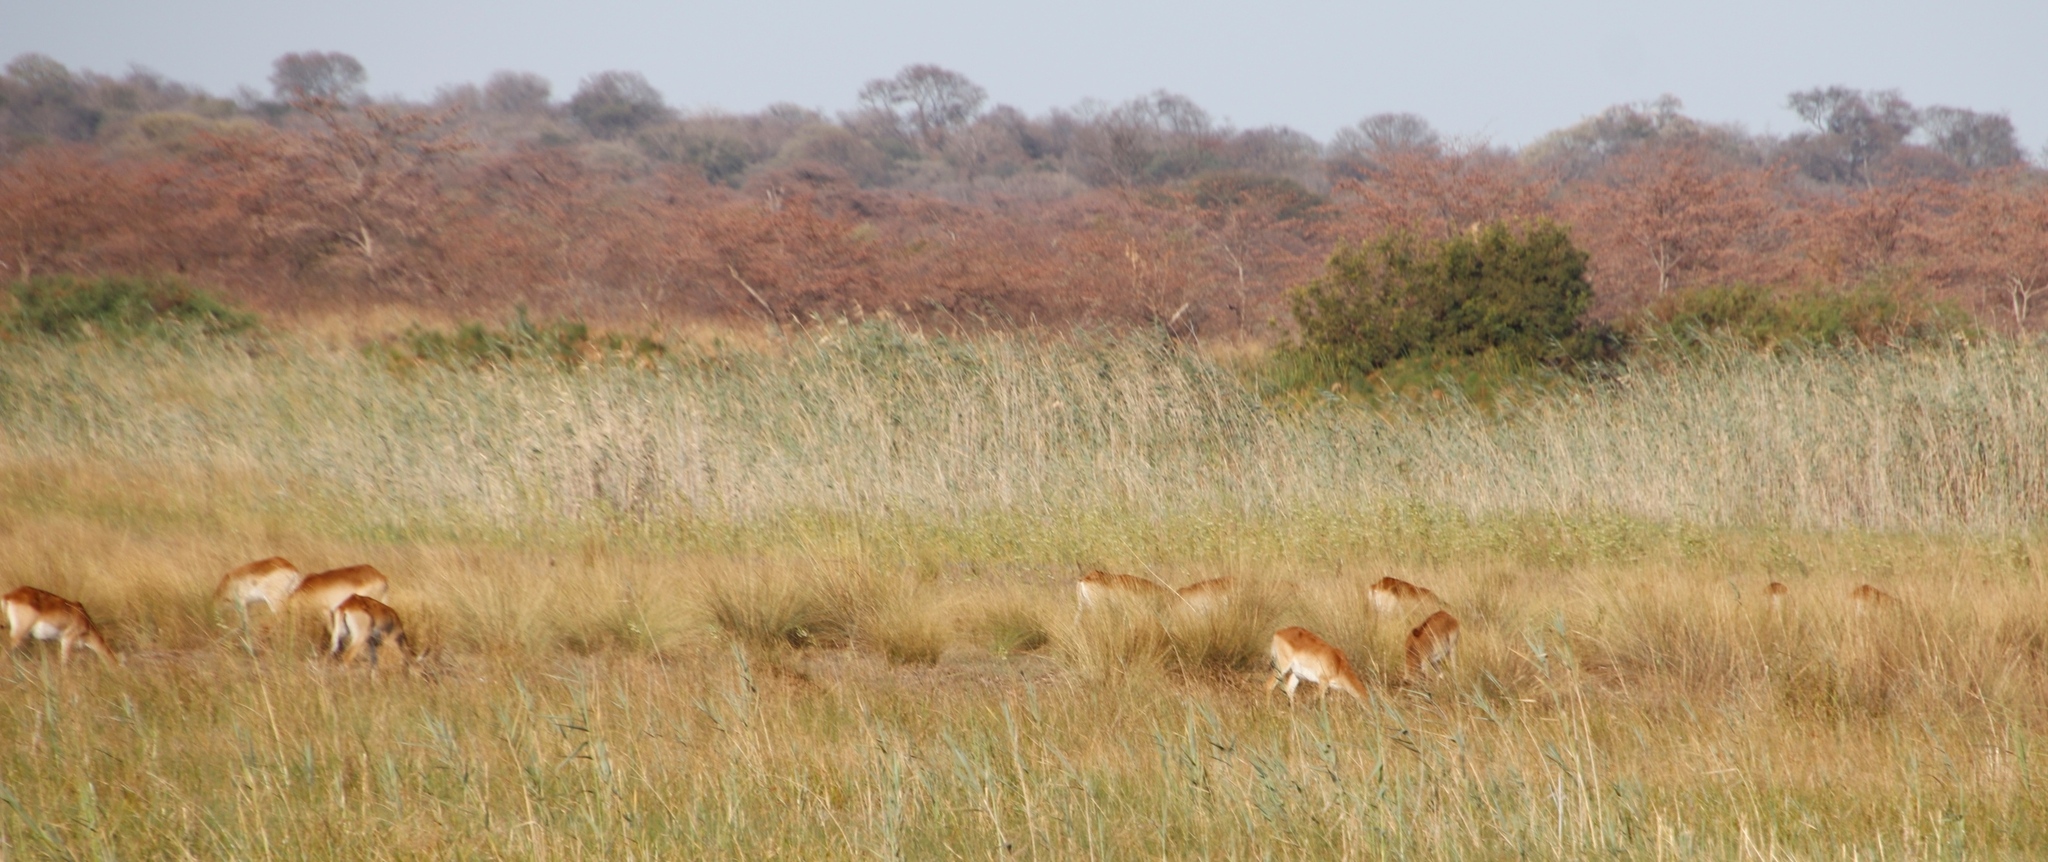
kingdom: Animalia
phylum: Chordata
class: Mammalia
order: Artiodactyla
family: Bovidae
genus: Kobus
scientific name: Kobus leche
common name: Lechwe
